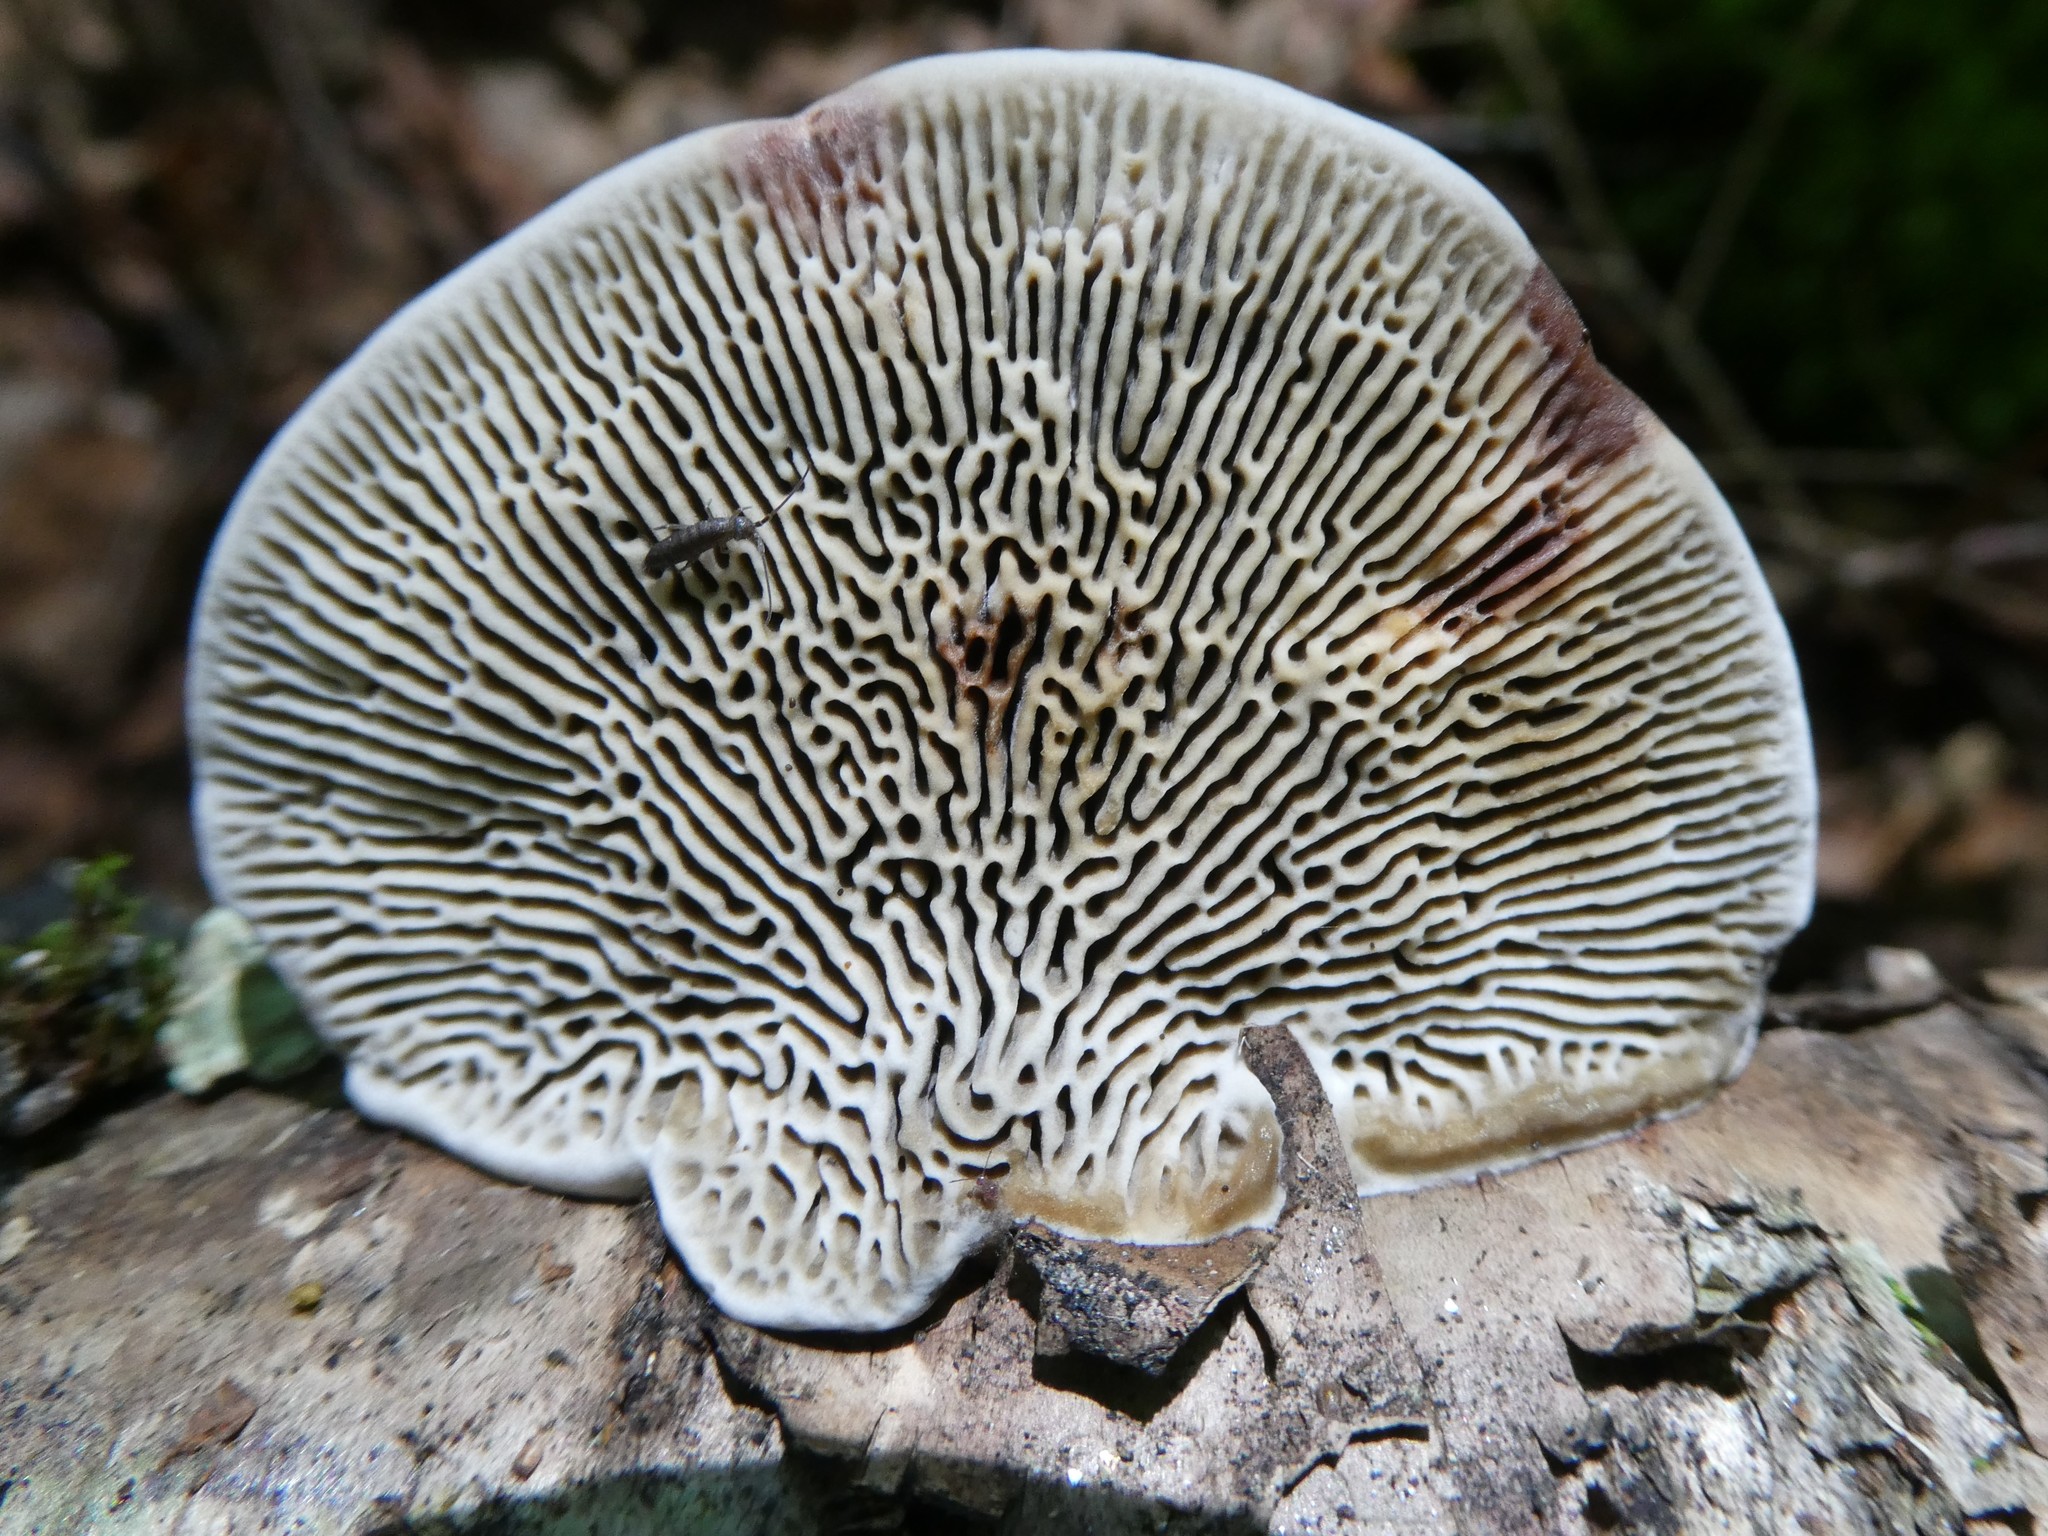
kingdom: Fungi
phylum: Basidiomycota
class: Agaricomycetes
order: Polyporales
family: Polyporaceae
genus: Daedaleopsis
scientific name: Daedaleopsis confragosa
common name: Blushing bracket
